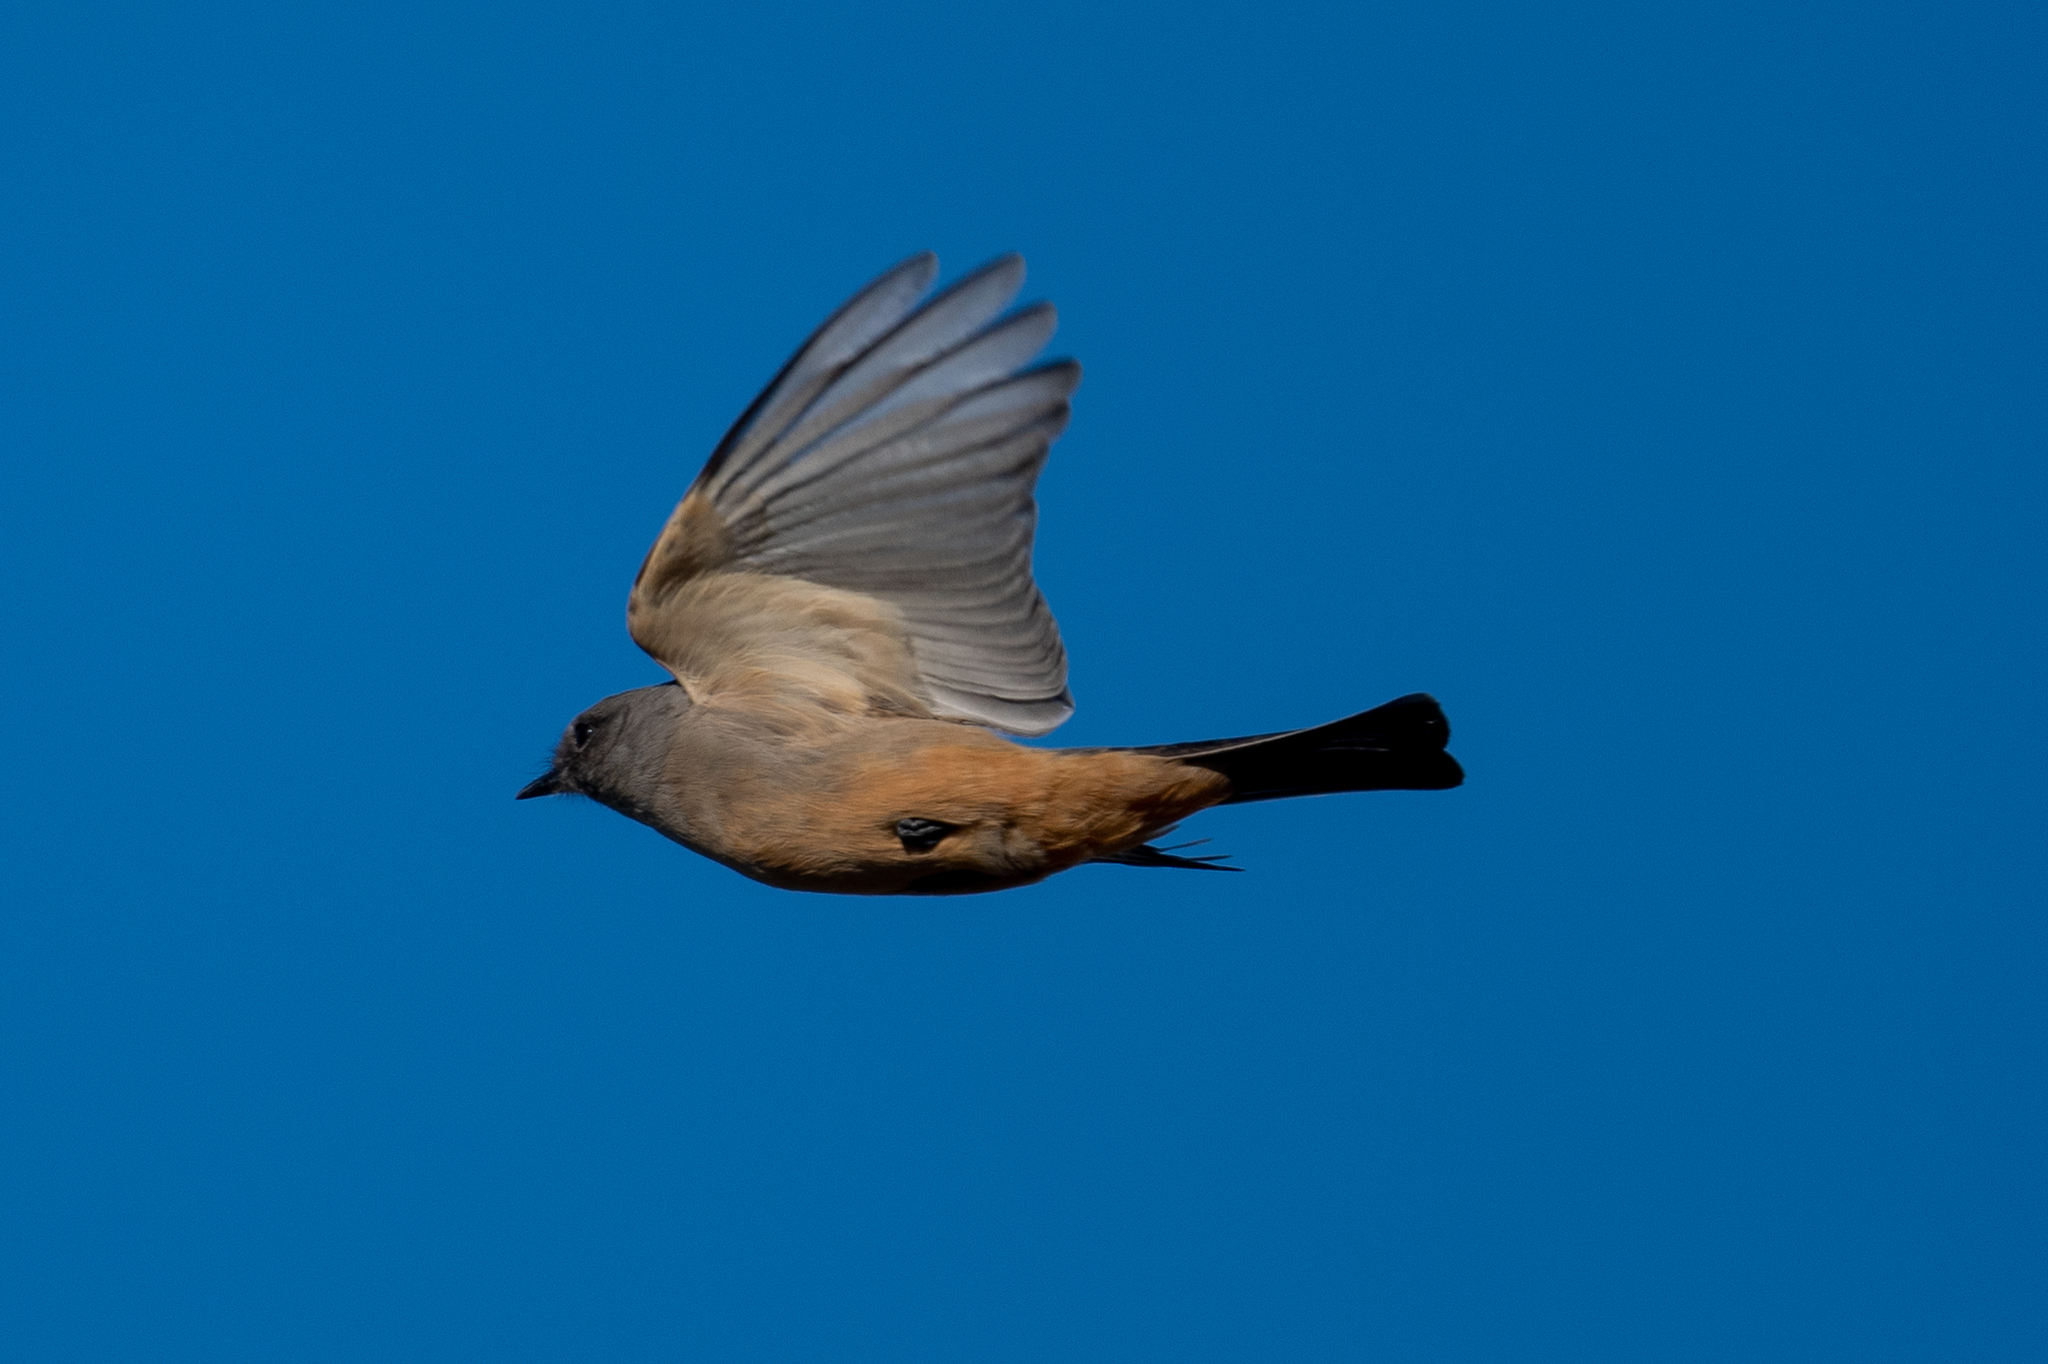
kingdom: Animalia
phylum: Chordata
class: Aves
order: Passeriformes
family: Tyrannidae
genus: Sayornis
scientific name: Sayornis saya
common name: Say's phoebe
